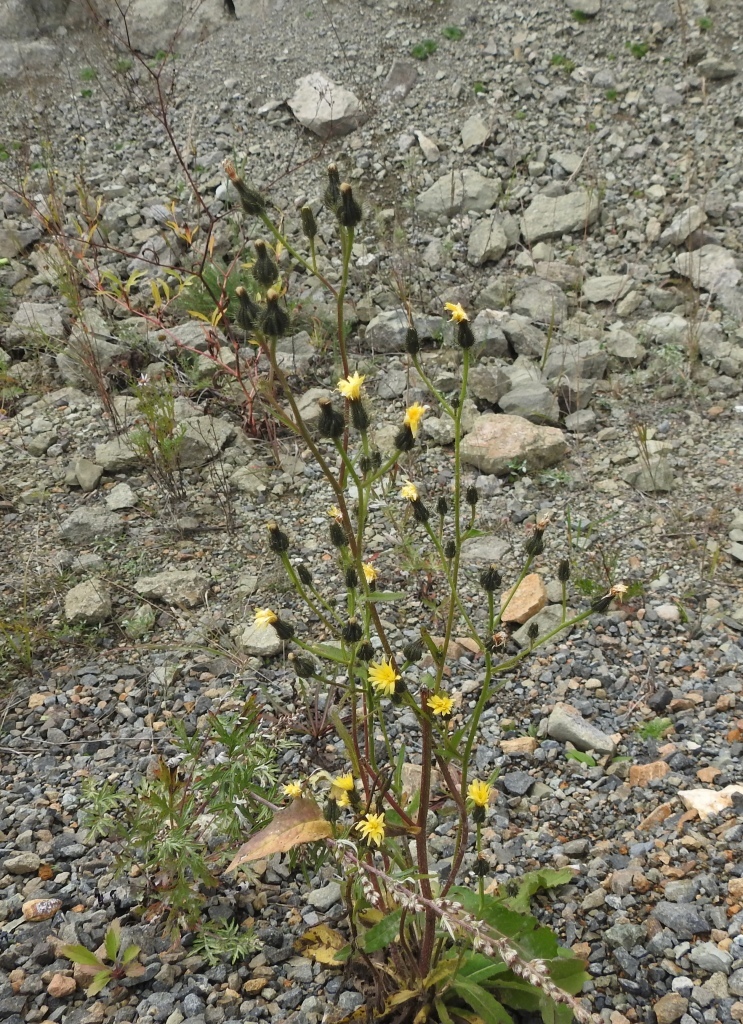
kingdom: Plantae
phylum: Tracheophyta
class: Magnoliopsida
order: Asterales
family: Asteraceae
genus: Picris
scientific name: Picris davurica
